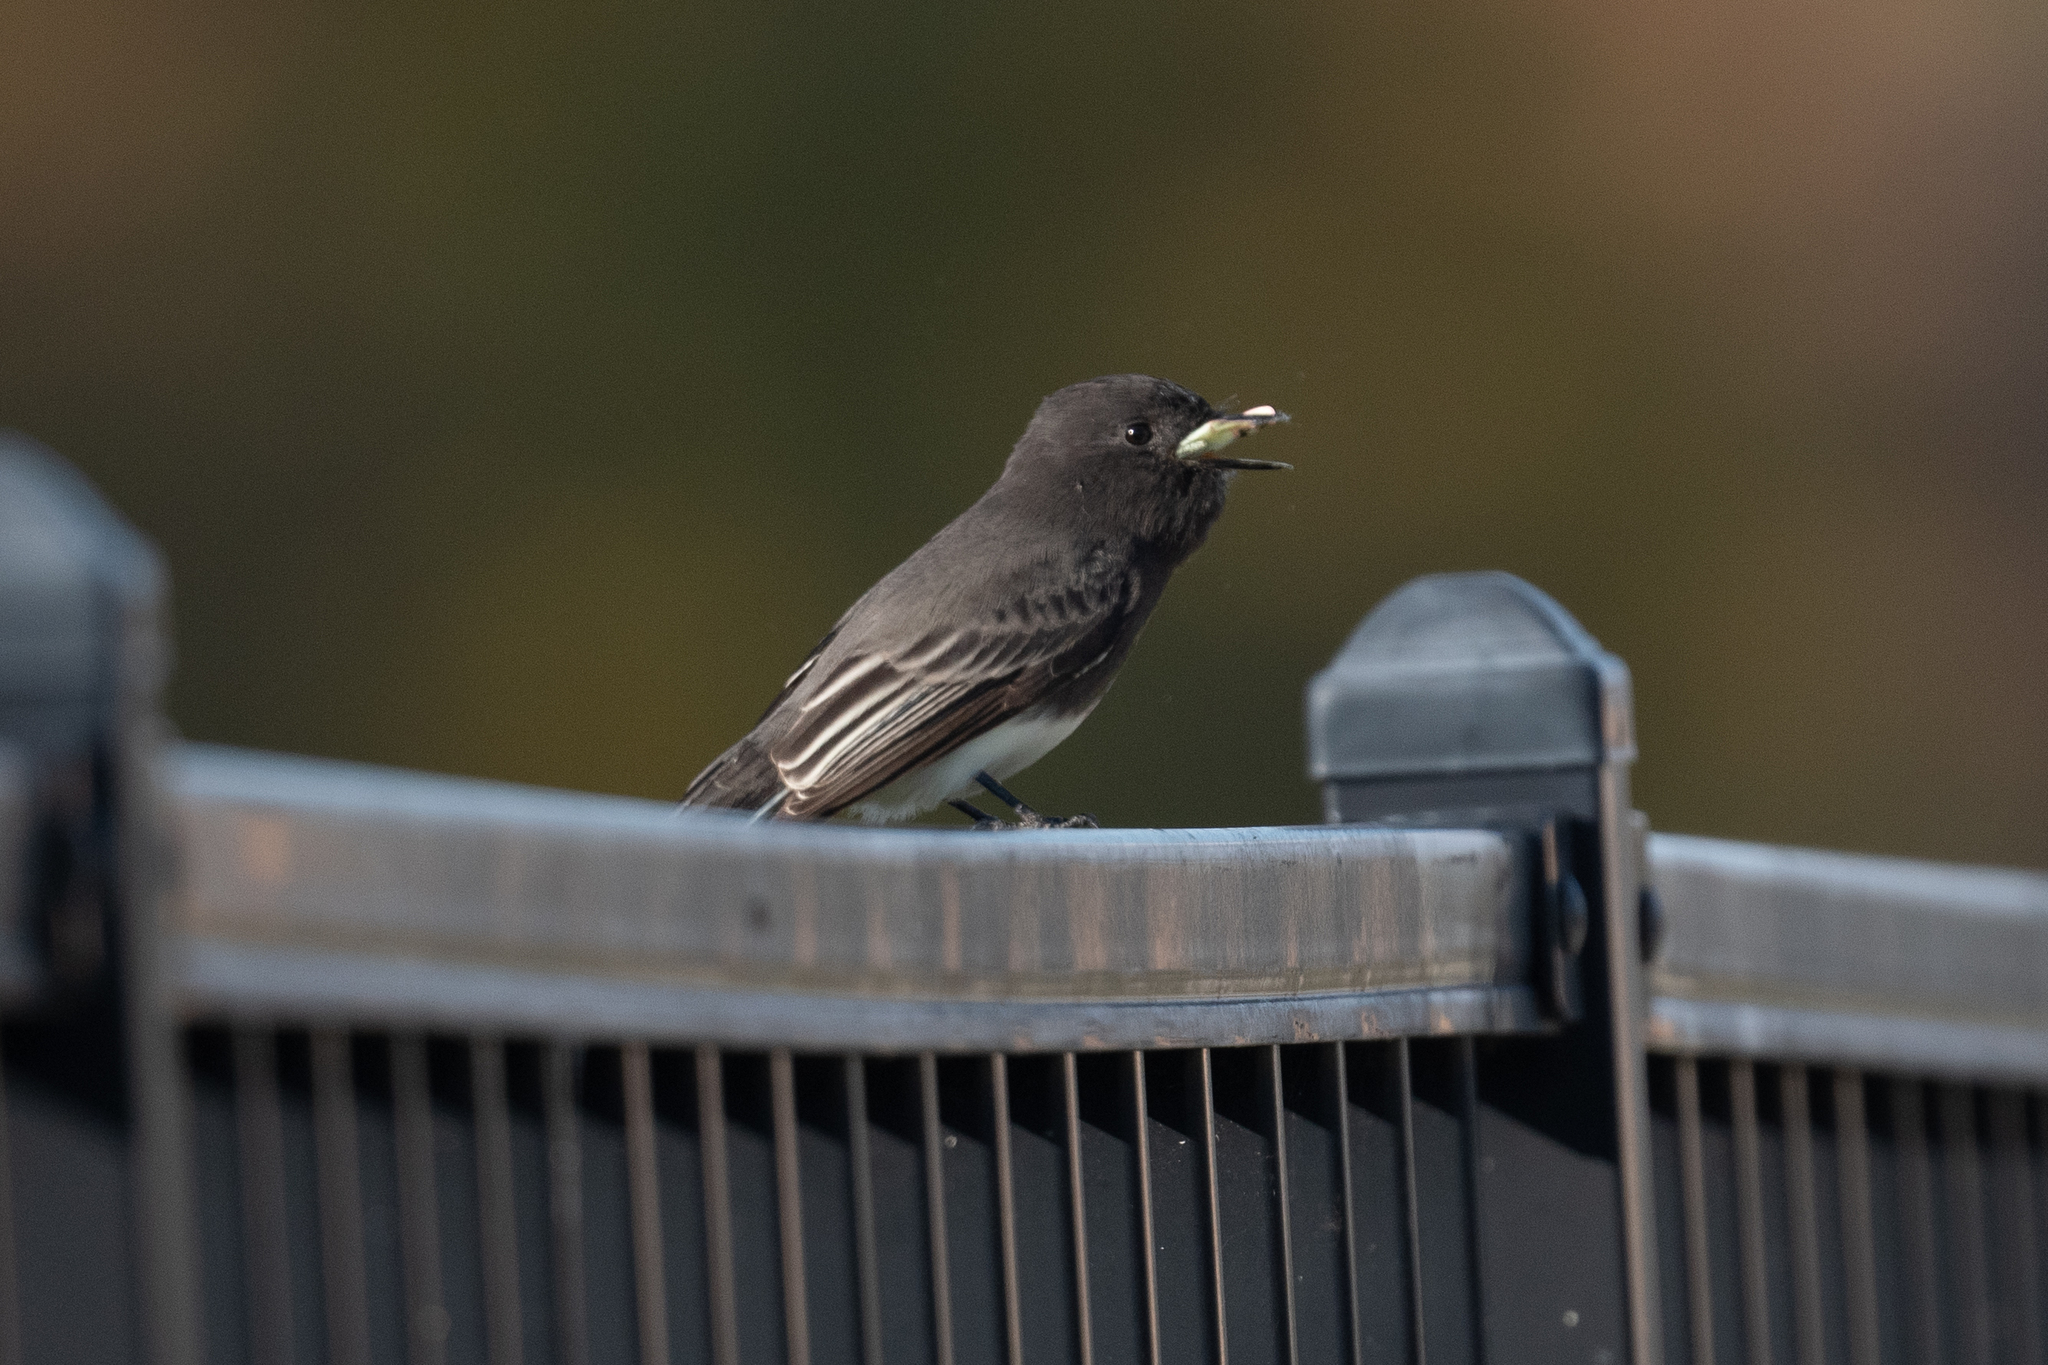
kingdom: Animalia
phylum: Chordata
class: Aves
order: Passeriformes
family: Tyrannidae
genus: Sayornis
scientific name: Sayornis nigricans
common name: Black phoebe
